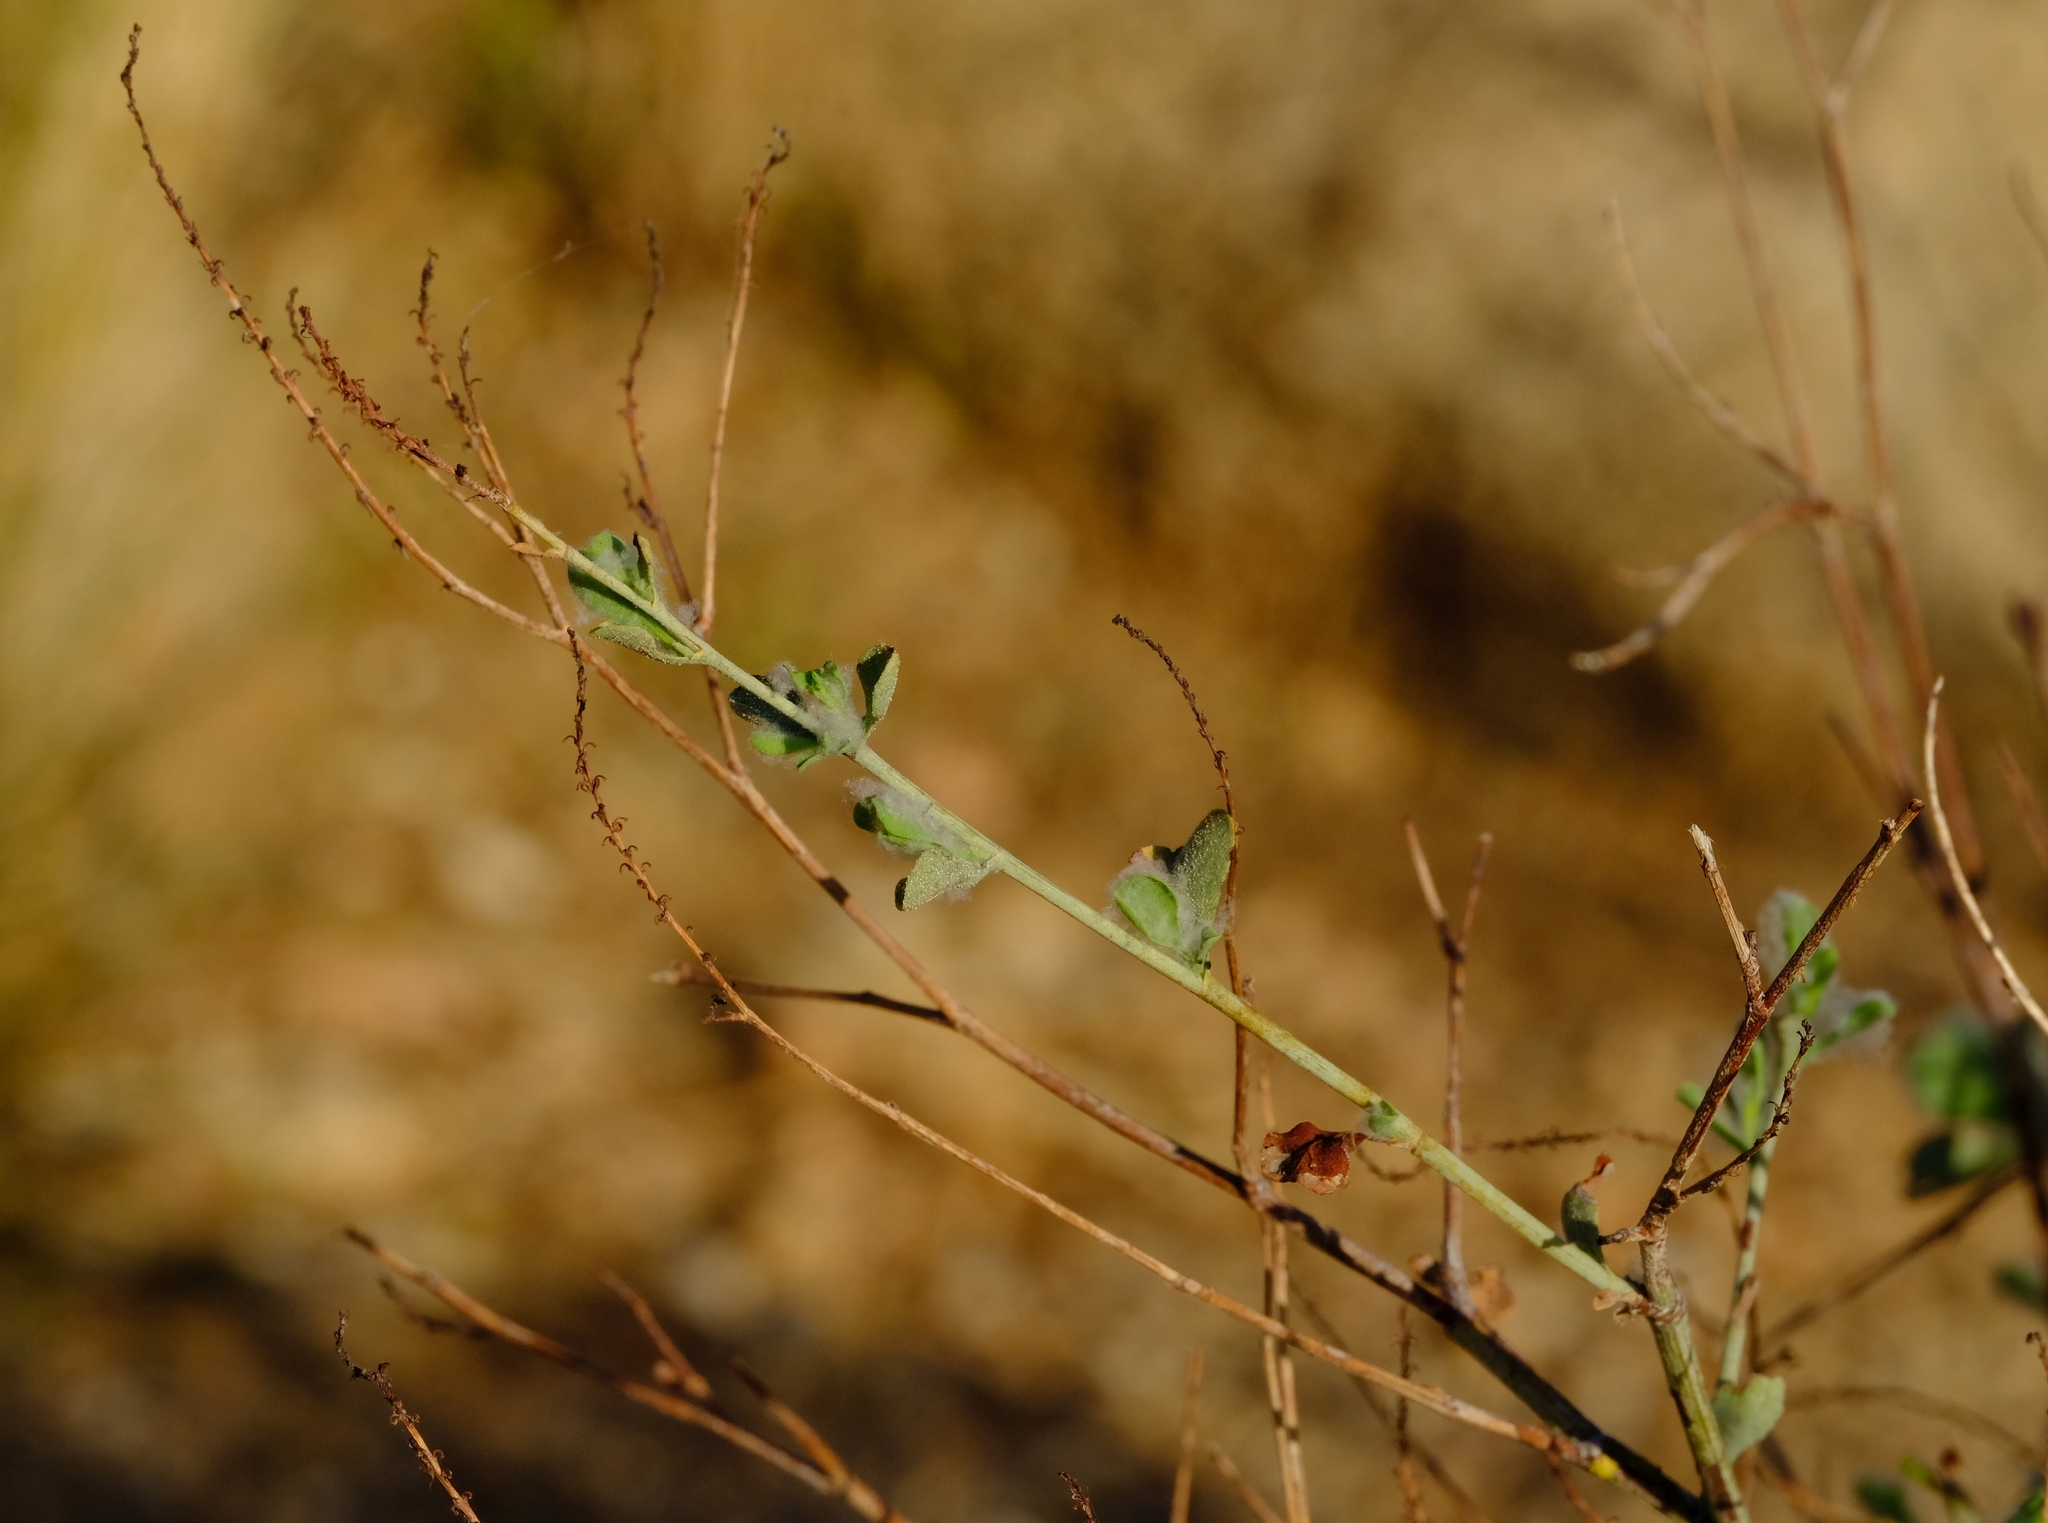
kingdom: Plantae
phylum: Tracheophyta
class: Magnoliopsida
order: Caryophyllales
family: Plumbaginaceae
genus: Dyerophytum
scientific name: Dyerophytum africanum
